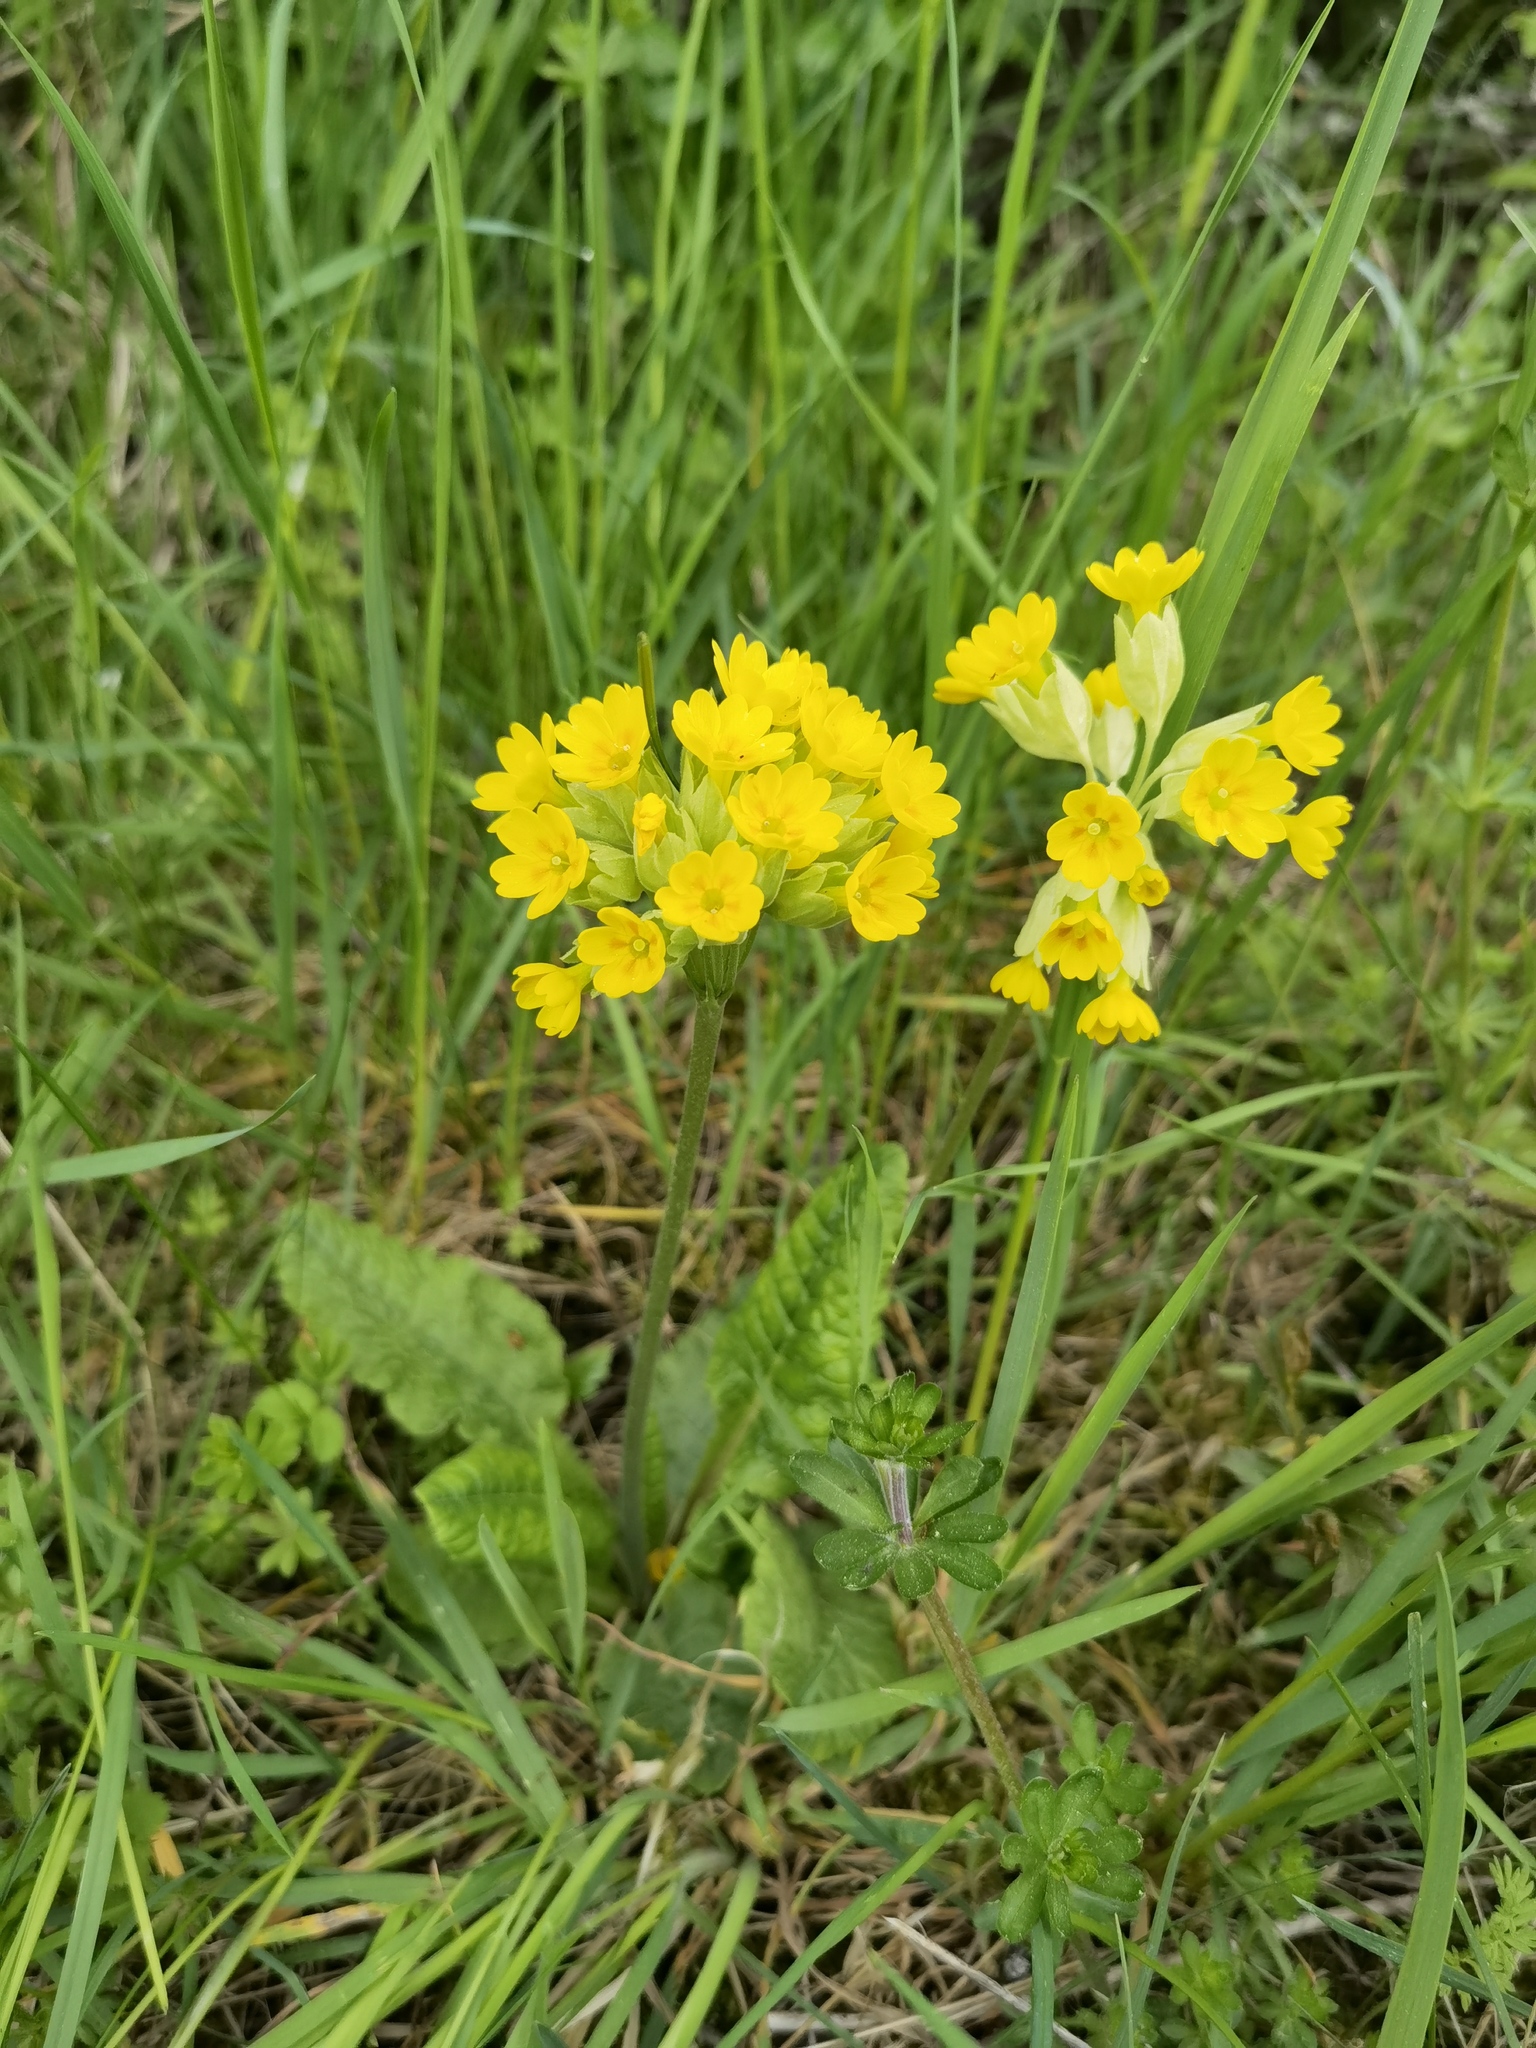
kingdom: Plantae
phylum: Tracheophyta
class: Magnoliopsida
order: Ericales
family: Primulaceae
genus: Primula
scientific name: Primula veris
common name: Cowslip
